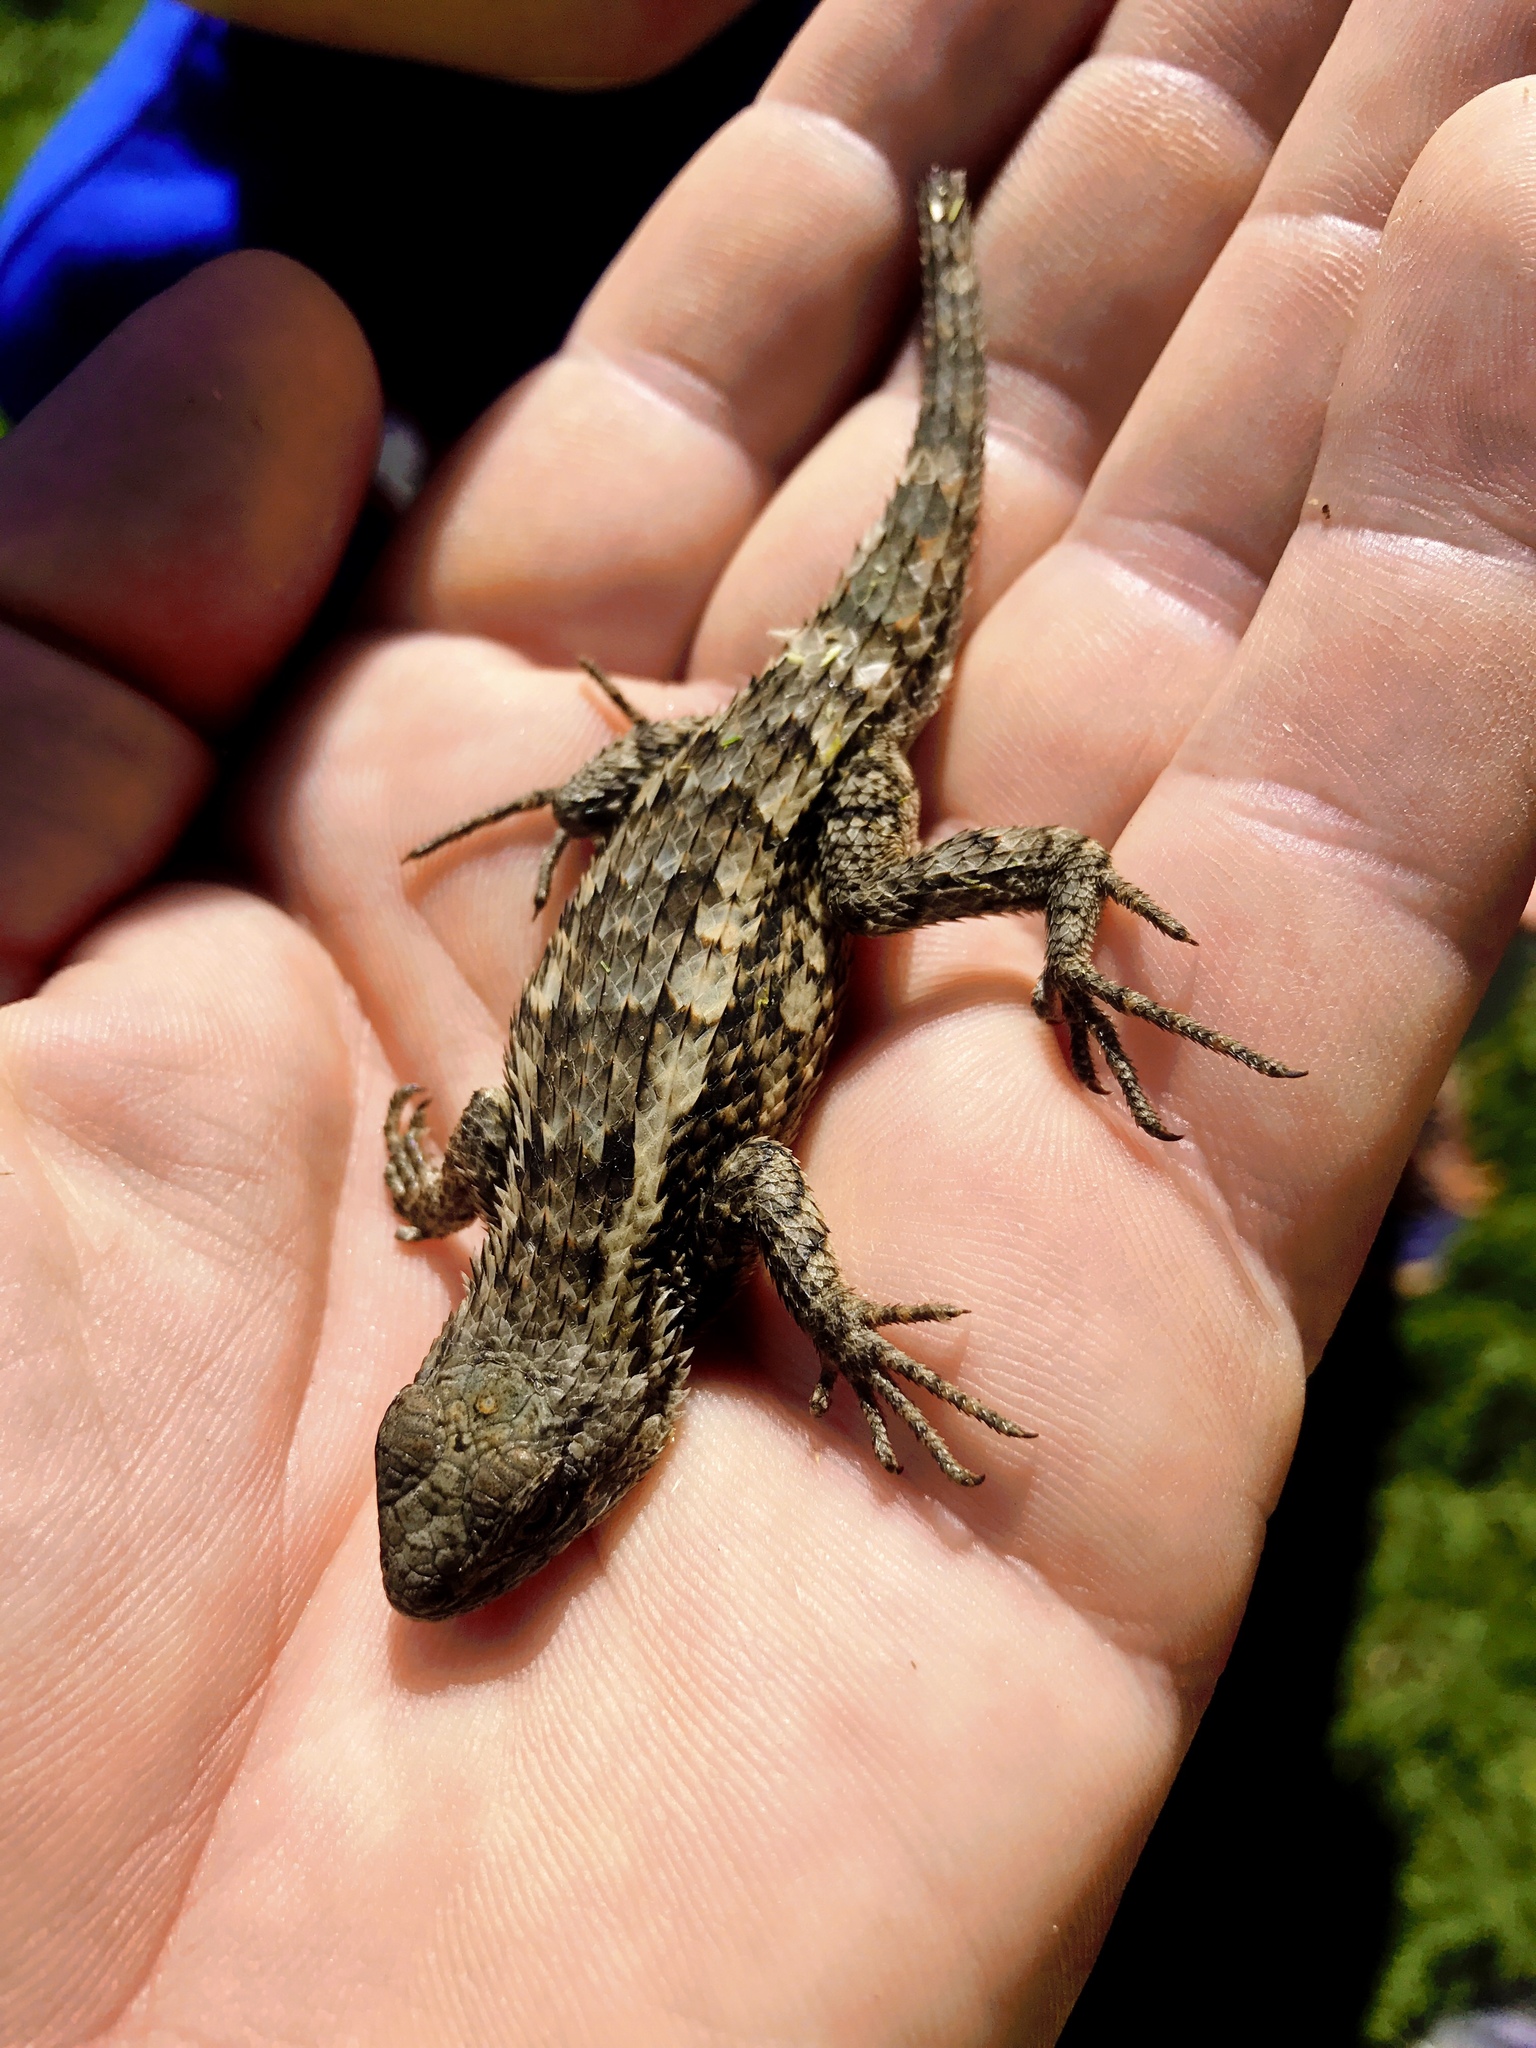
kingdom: Animalia
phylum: Chordata
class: Squamata
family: Phrynosomatidae
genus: Sceloporus
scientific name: Sceloporus olivaceus
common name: Texas spiny lizard
